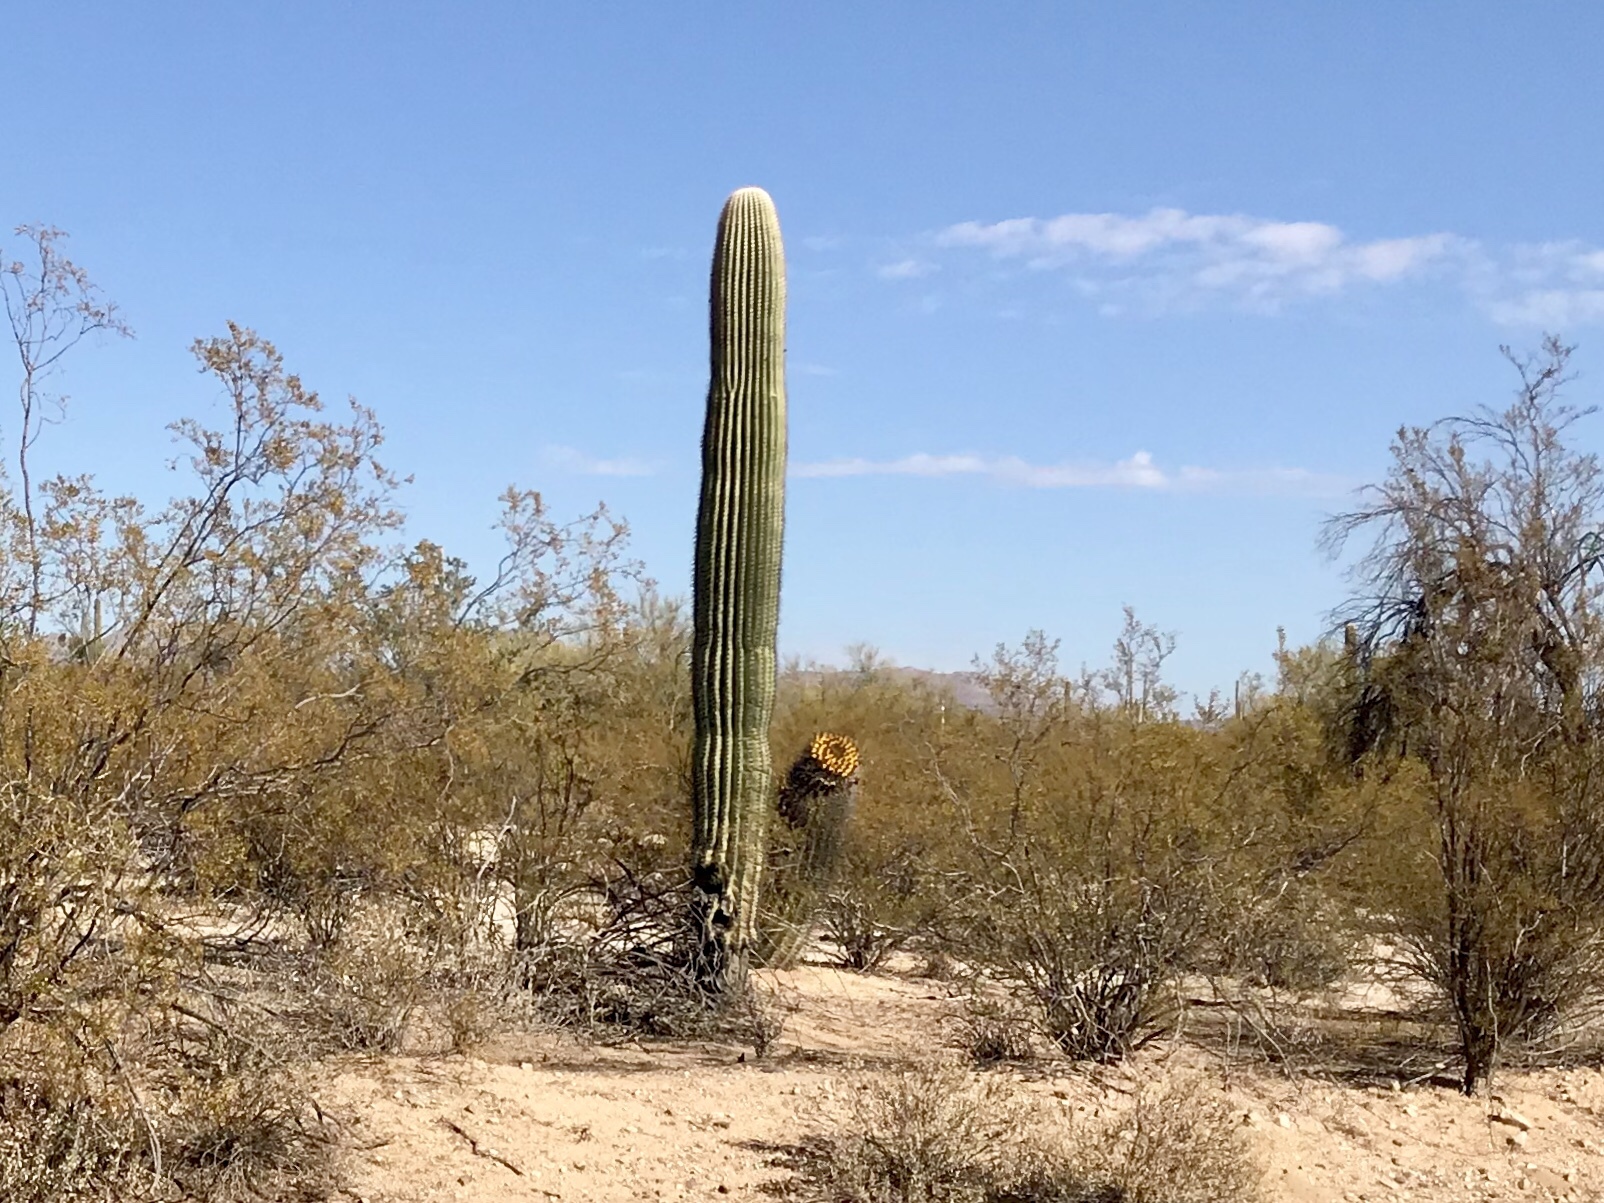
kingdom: Plantae
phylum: Tracheophyta
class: Magnoliopsida
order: Caryophyllales
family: Cactaceae
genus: Carnegiea
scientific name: Carnegiea gigantea
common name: Saguaro
